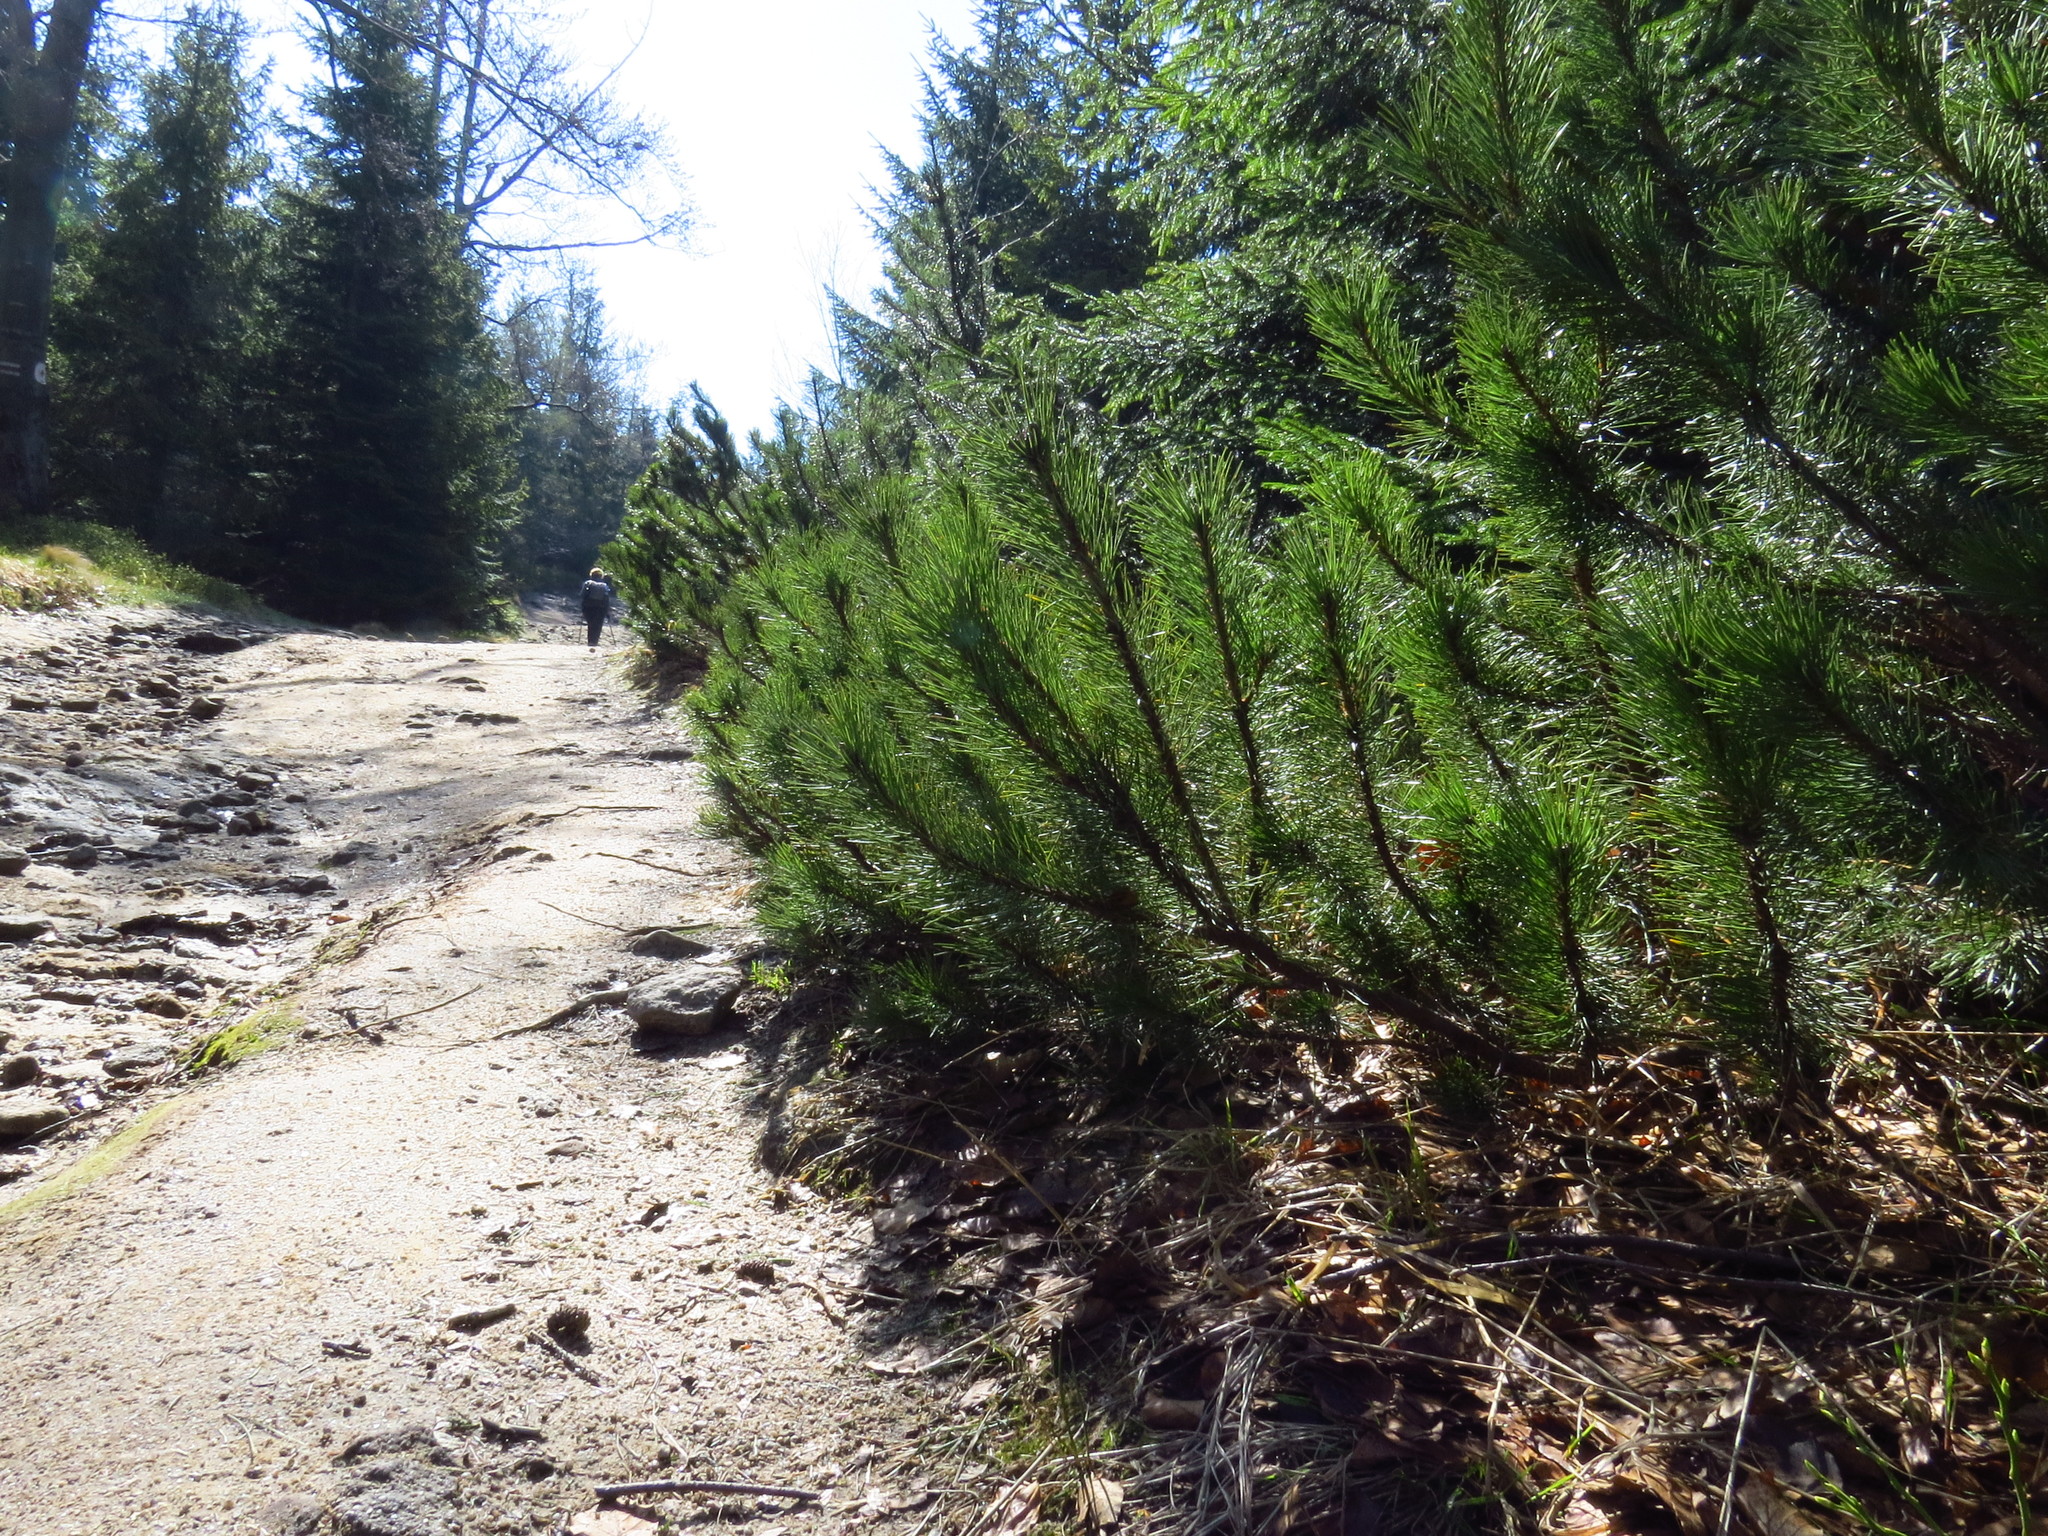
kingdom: Plantae
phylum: Tracheophyta
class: Pinopsida
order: Pinales
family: Pinaceae
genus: Pinus
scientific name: Pinus mugo
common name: Mugo pine
